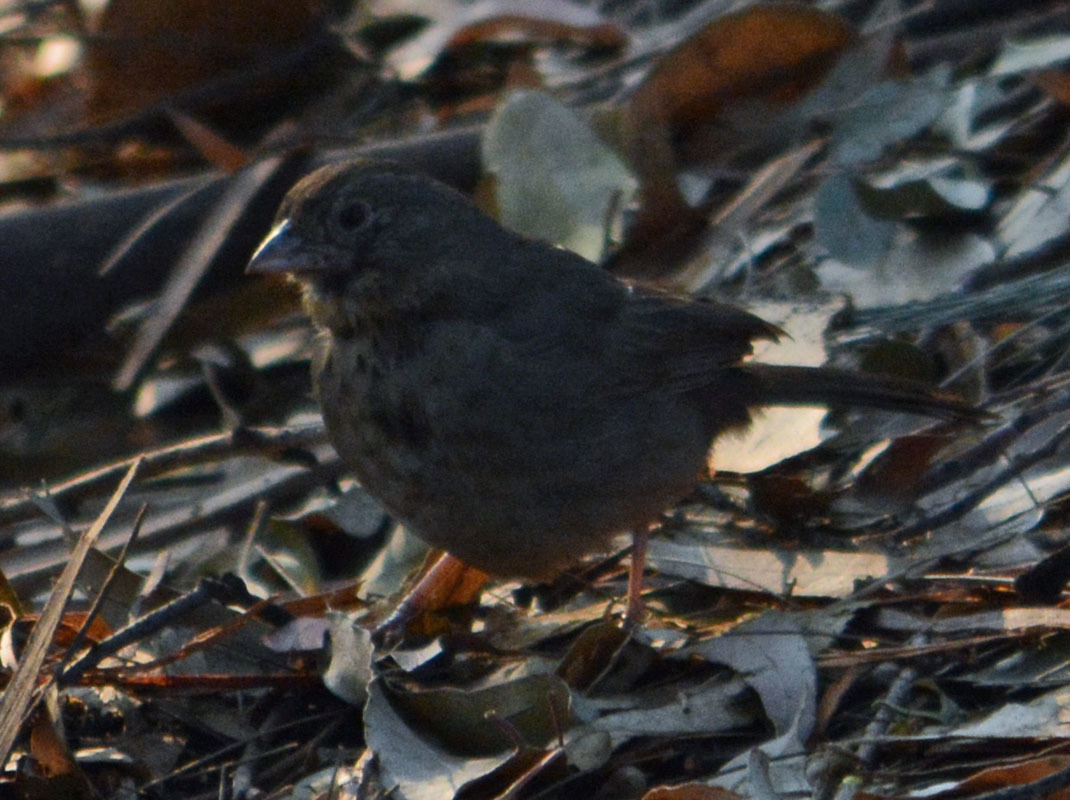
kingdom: Animalia
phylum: Chordata
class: Aves
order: Passeriformes
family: Passerellidae
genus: Melozone
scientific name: Melozone fusca
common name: Canyon towhee
